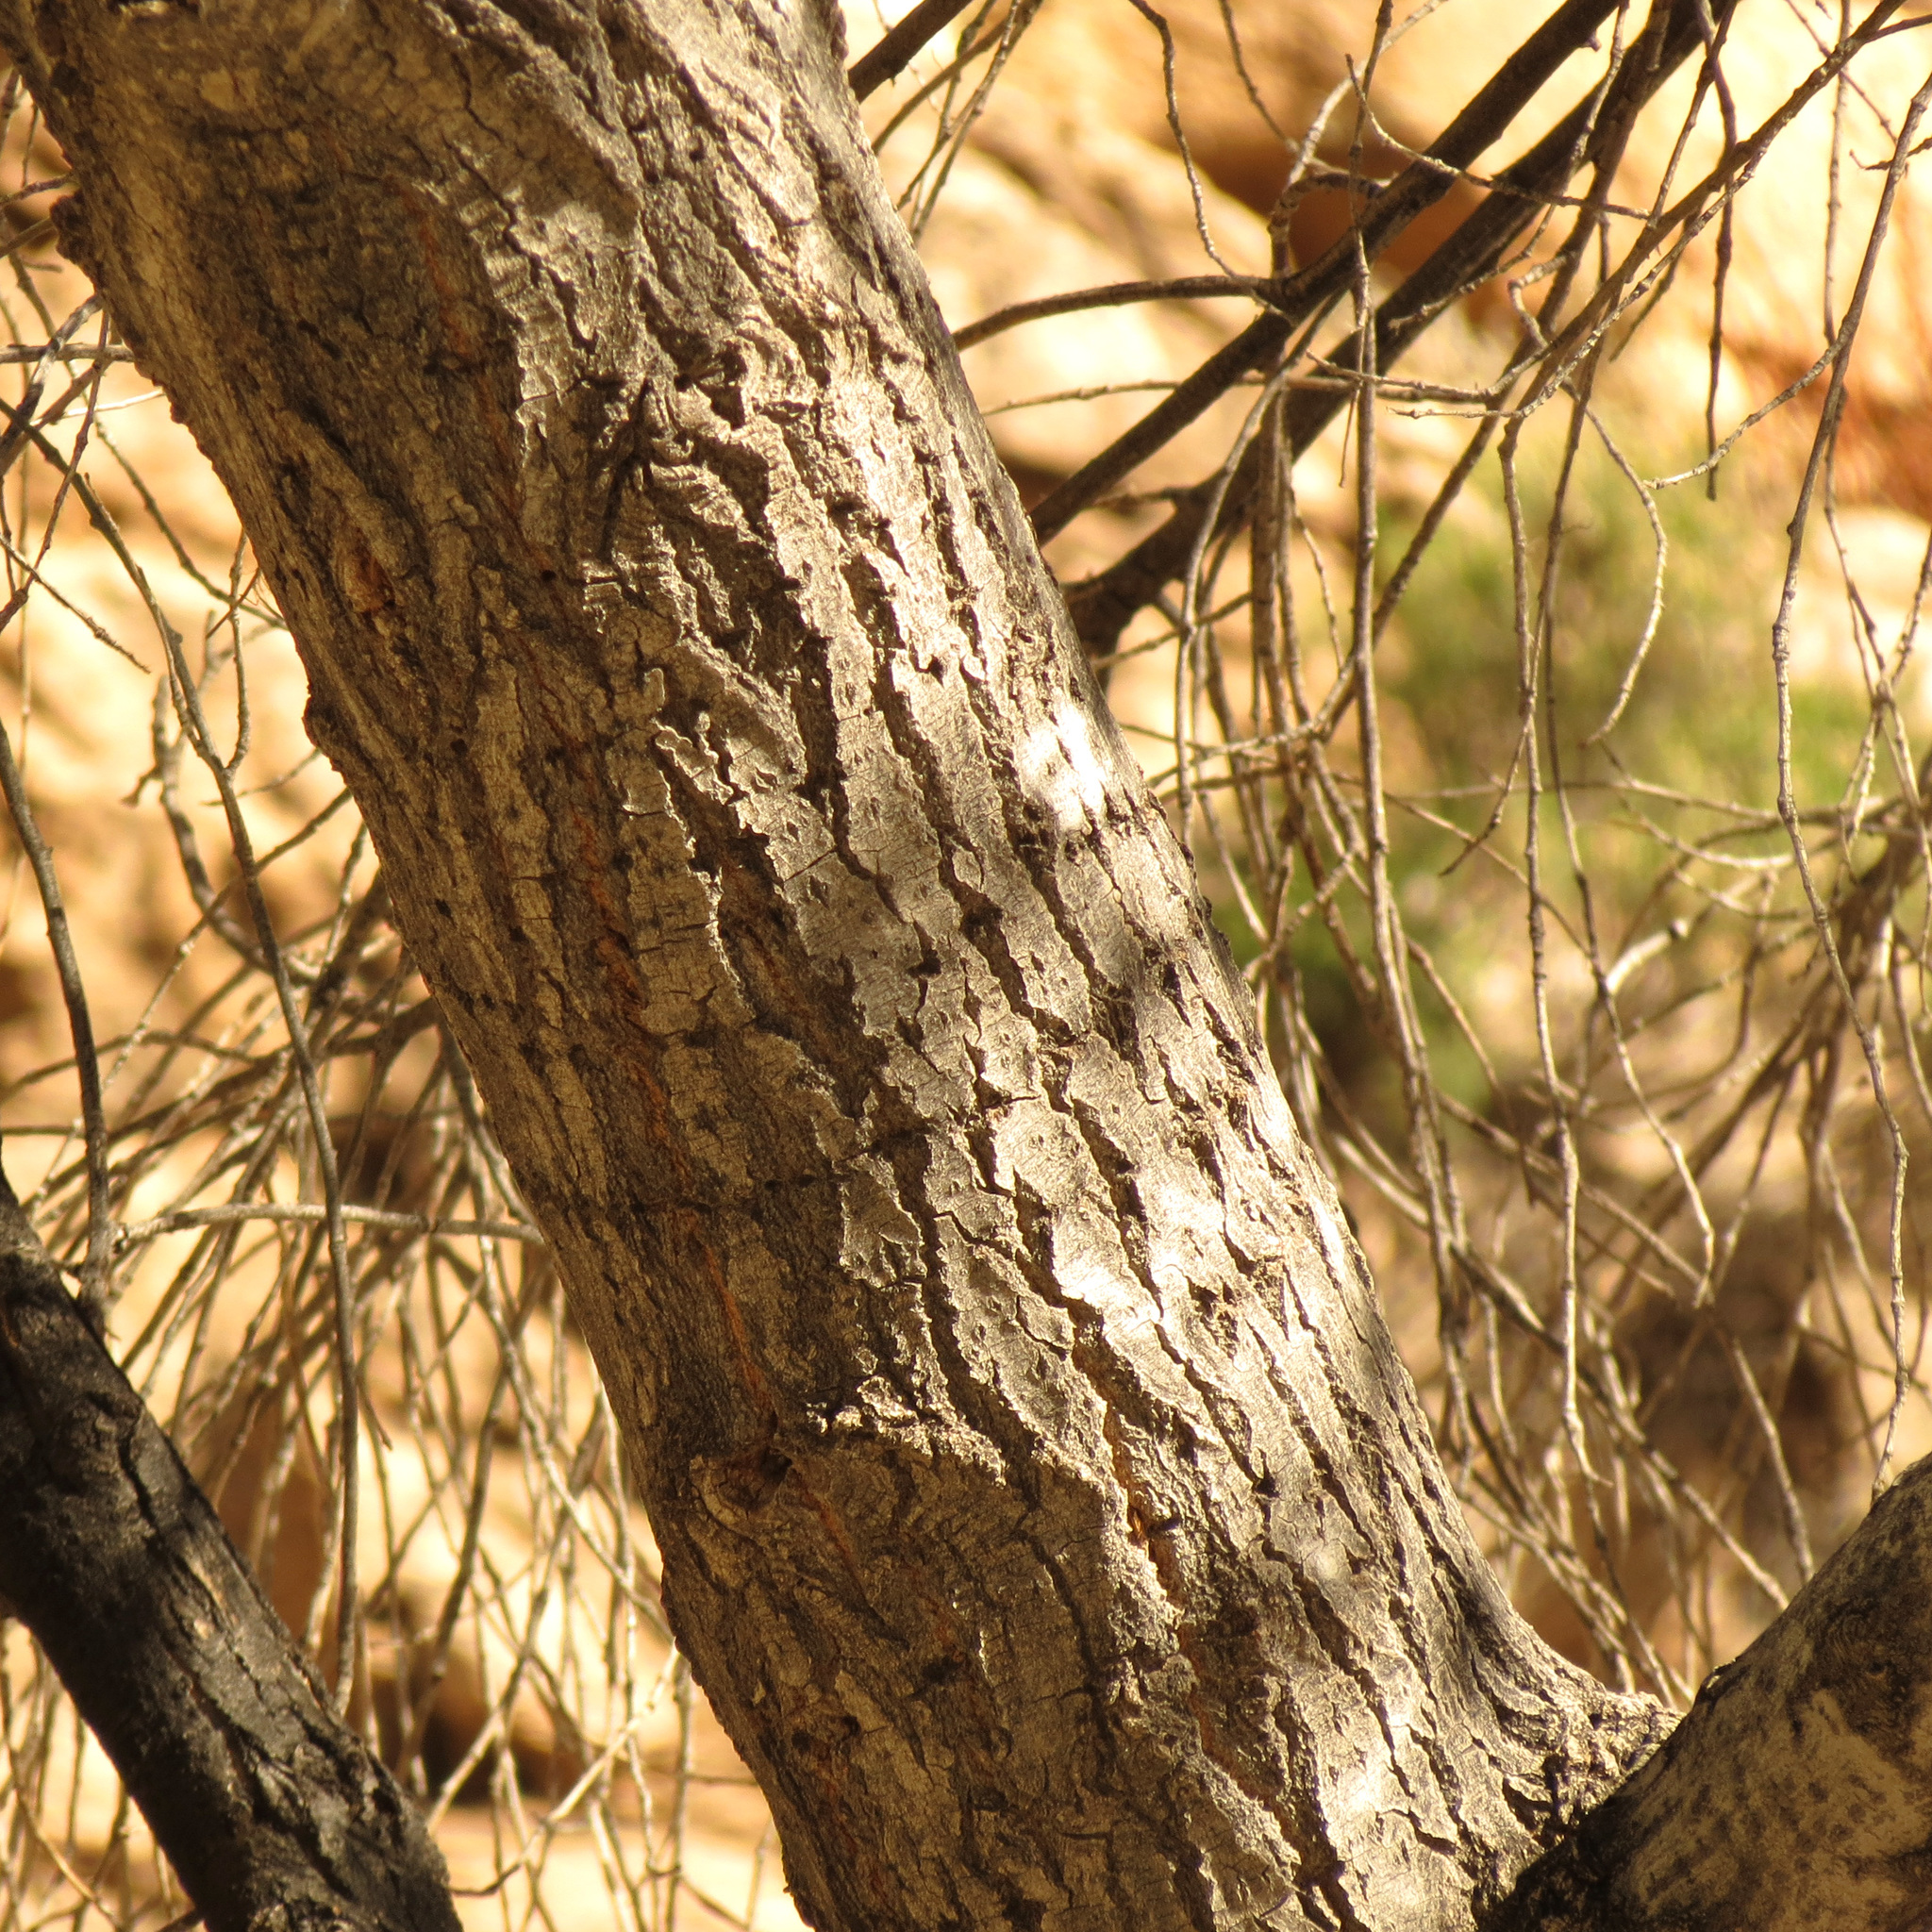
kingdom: Plantae
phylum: Tracheophyta
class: Magnoliopsida
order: Malpighiales
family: Salicaceae
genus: Populus
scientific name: Populus fremontii
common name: Fremont's cottonwood
